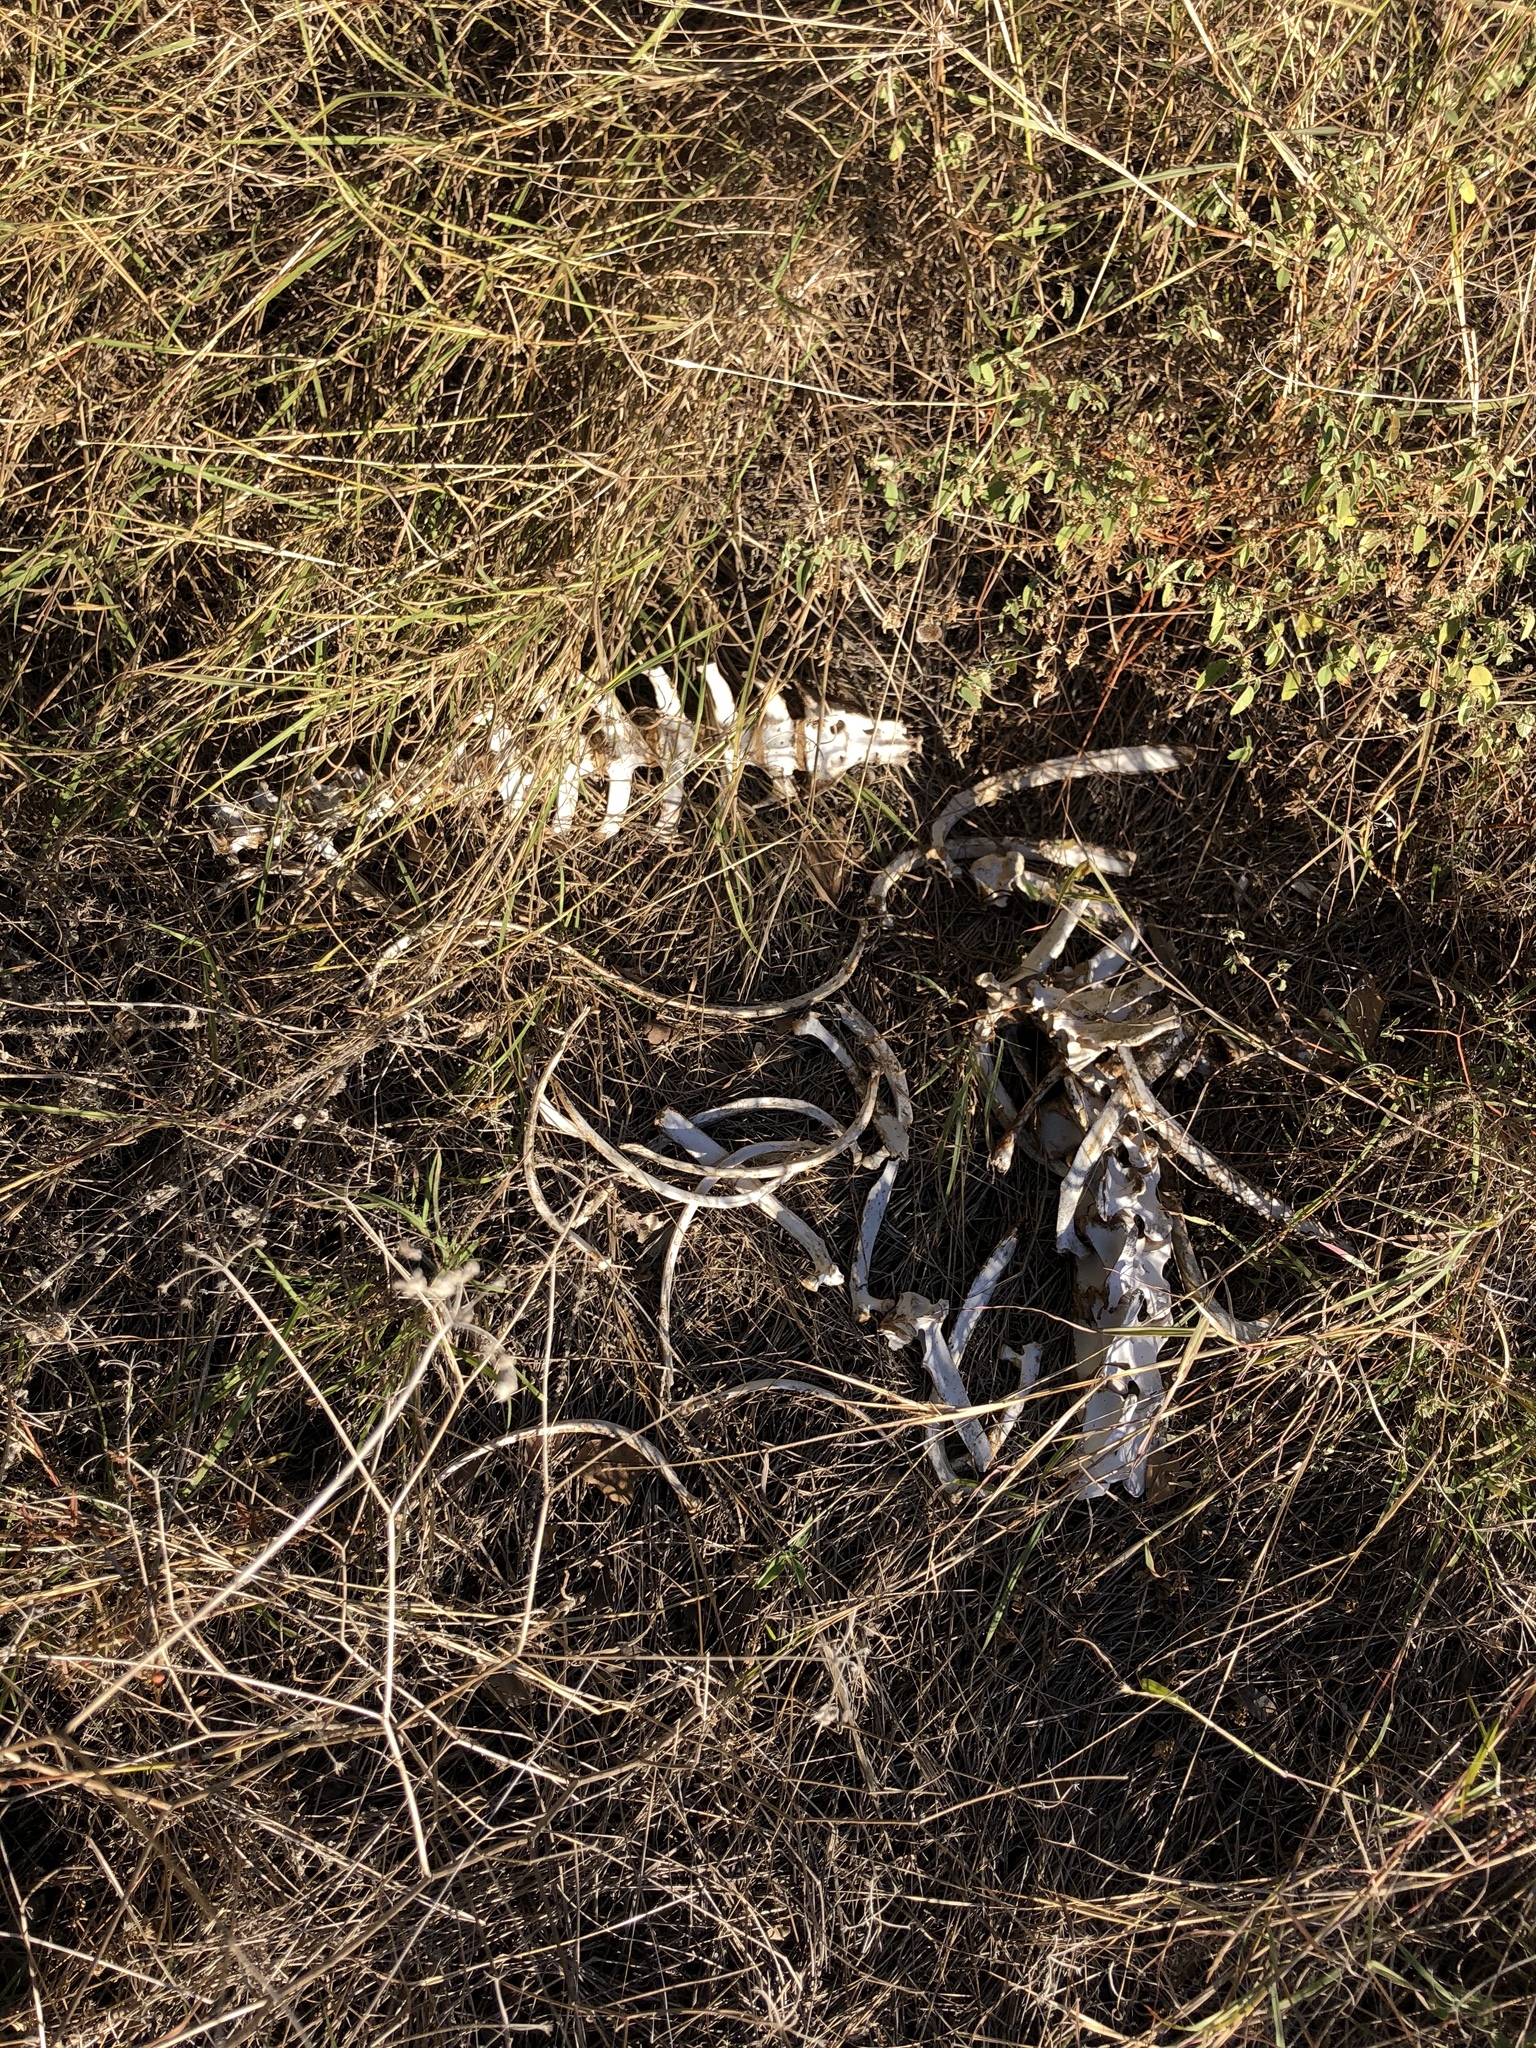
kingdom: Animalia
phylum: Chordata
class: Mammalia
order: Artiodactyla
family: Cervidae
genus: Odocoileus
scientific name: Odocoileus virginianus
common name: White-tailed deer
